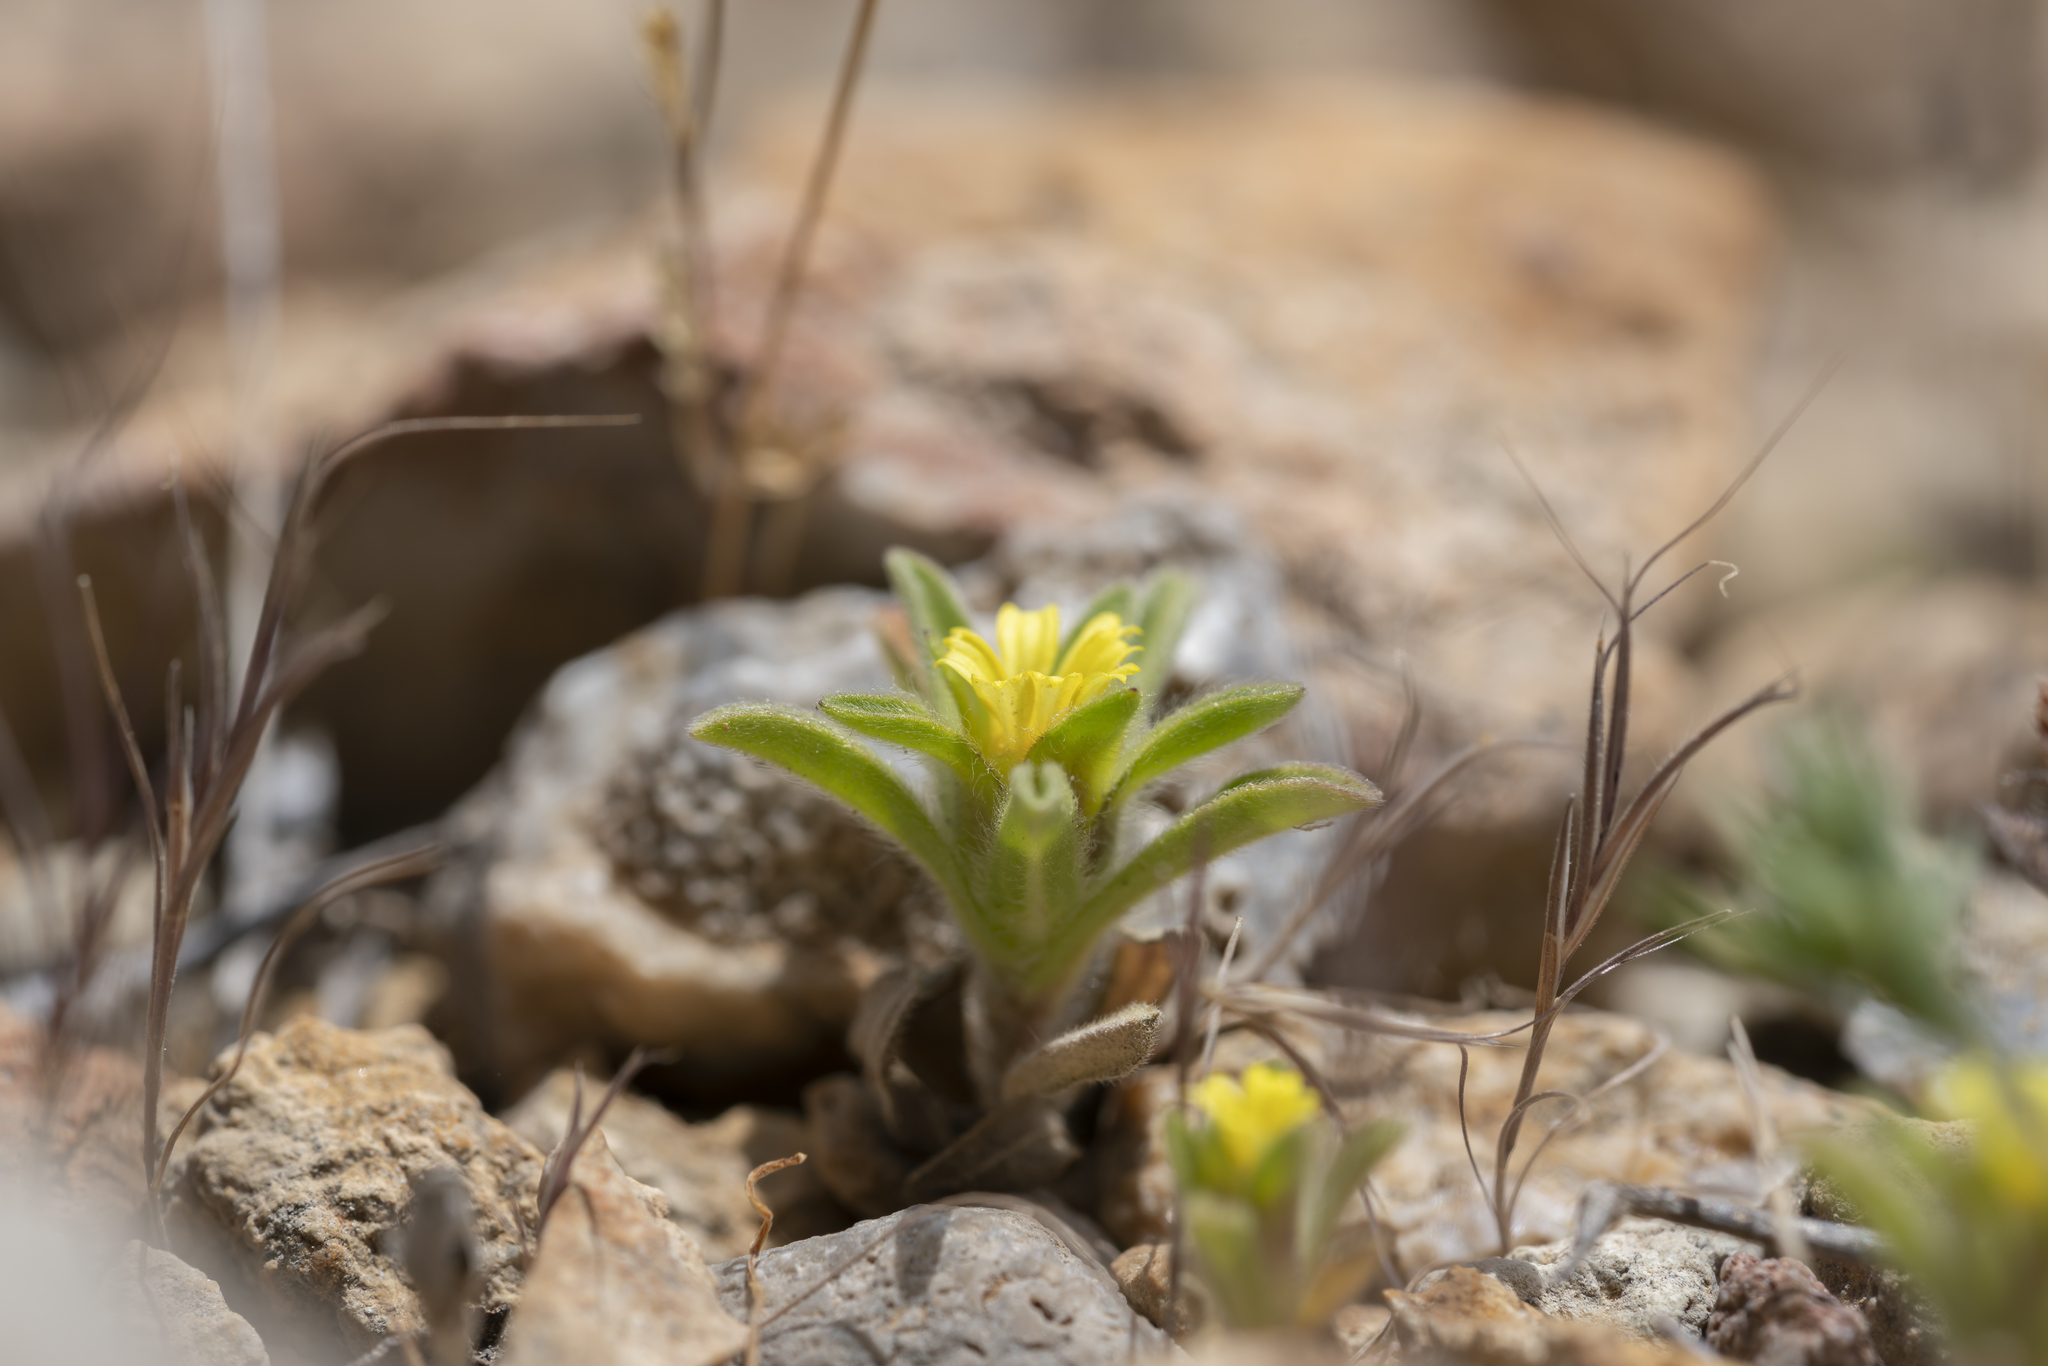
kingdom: Plantae
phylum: Tracheophyta
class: Magnoliopsida
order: Asterales
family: Asteraceae
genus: Asteriscus
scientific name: Asteriscus aquaticus
